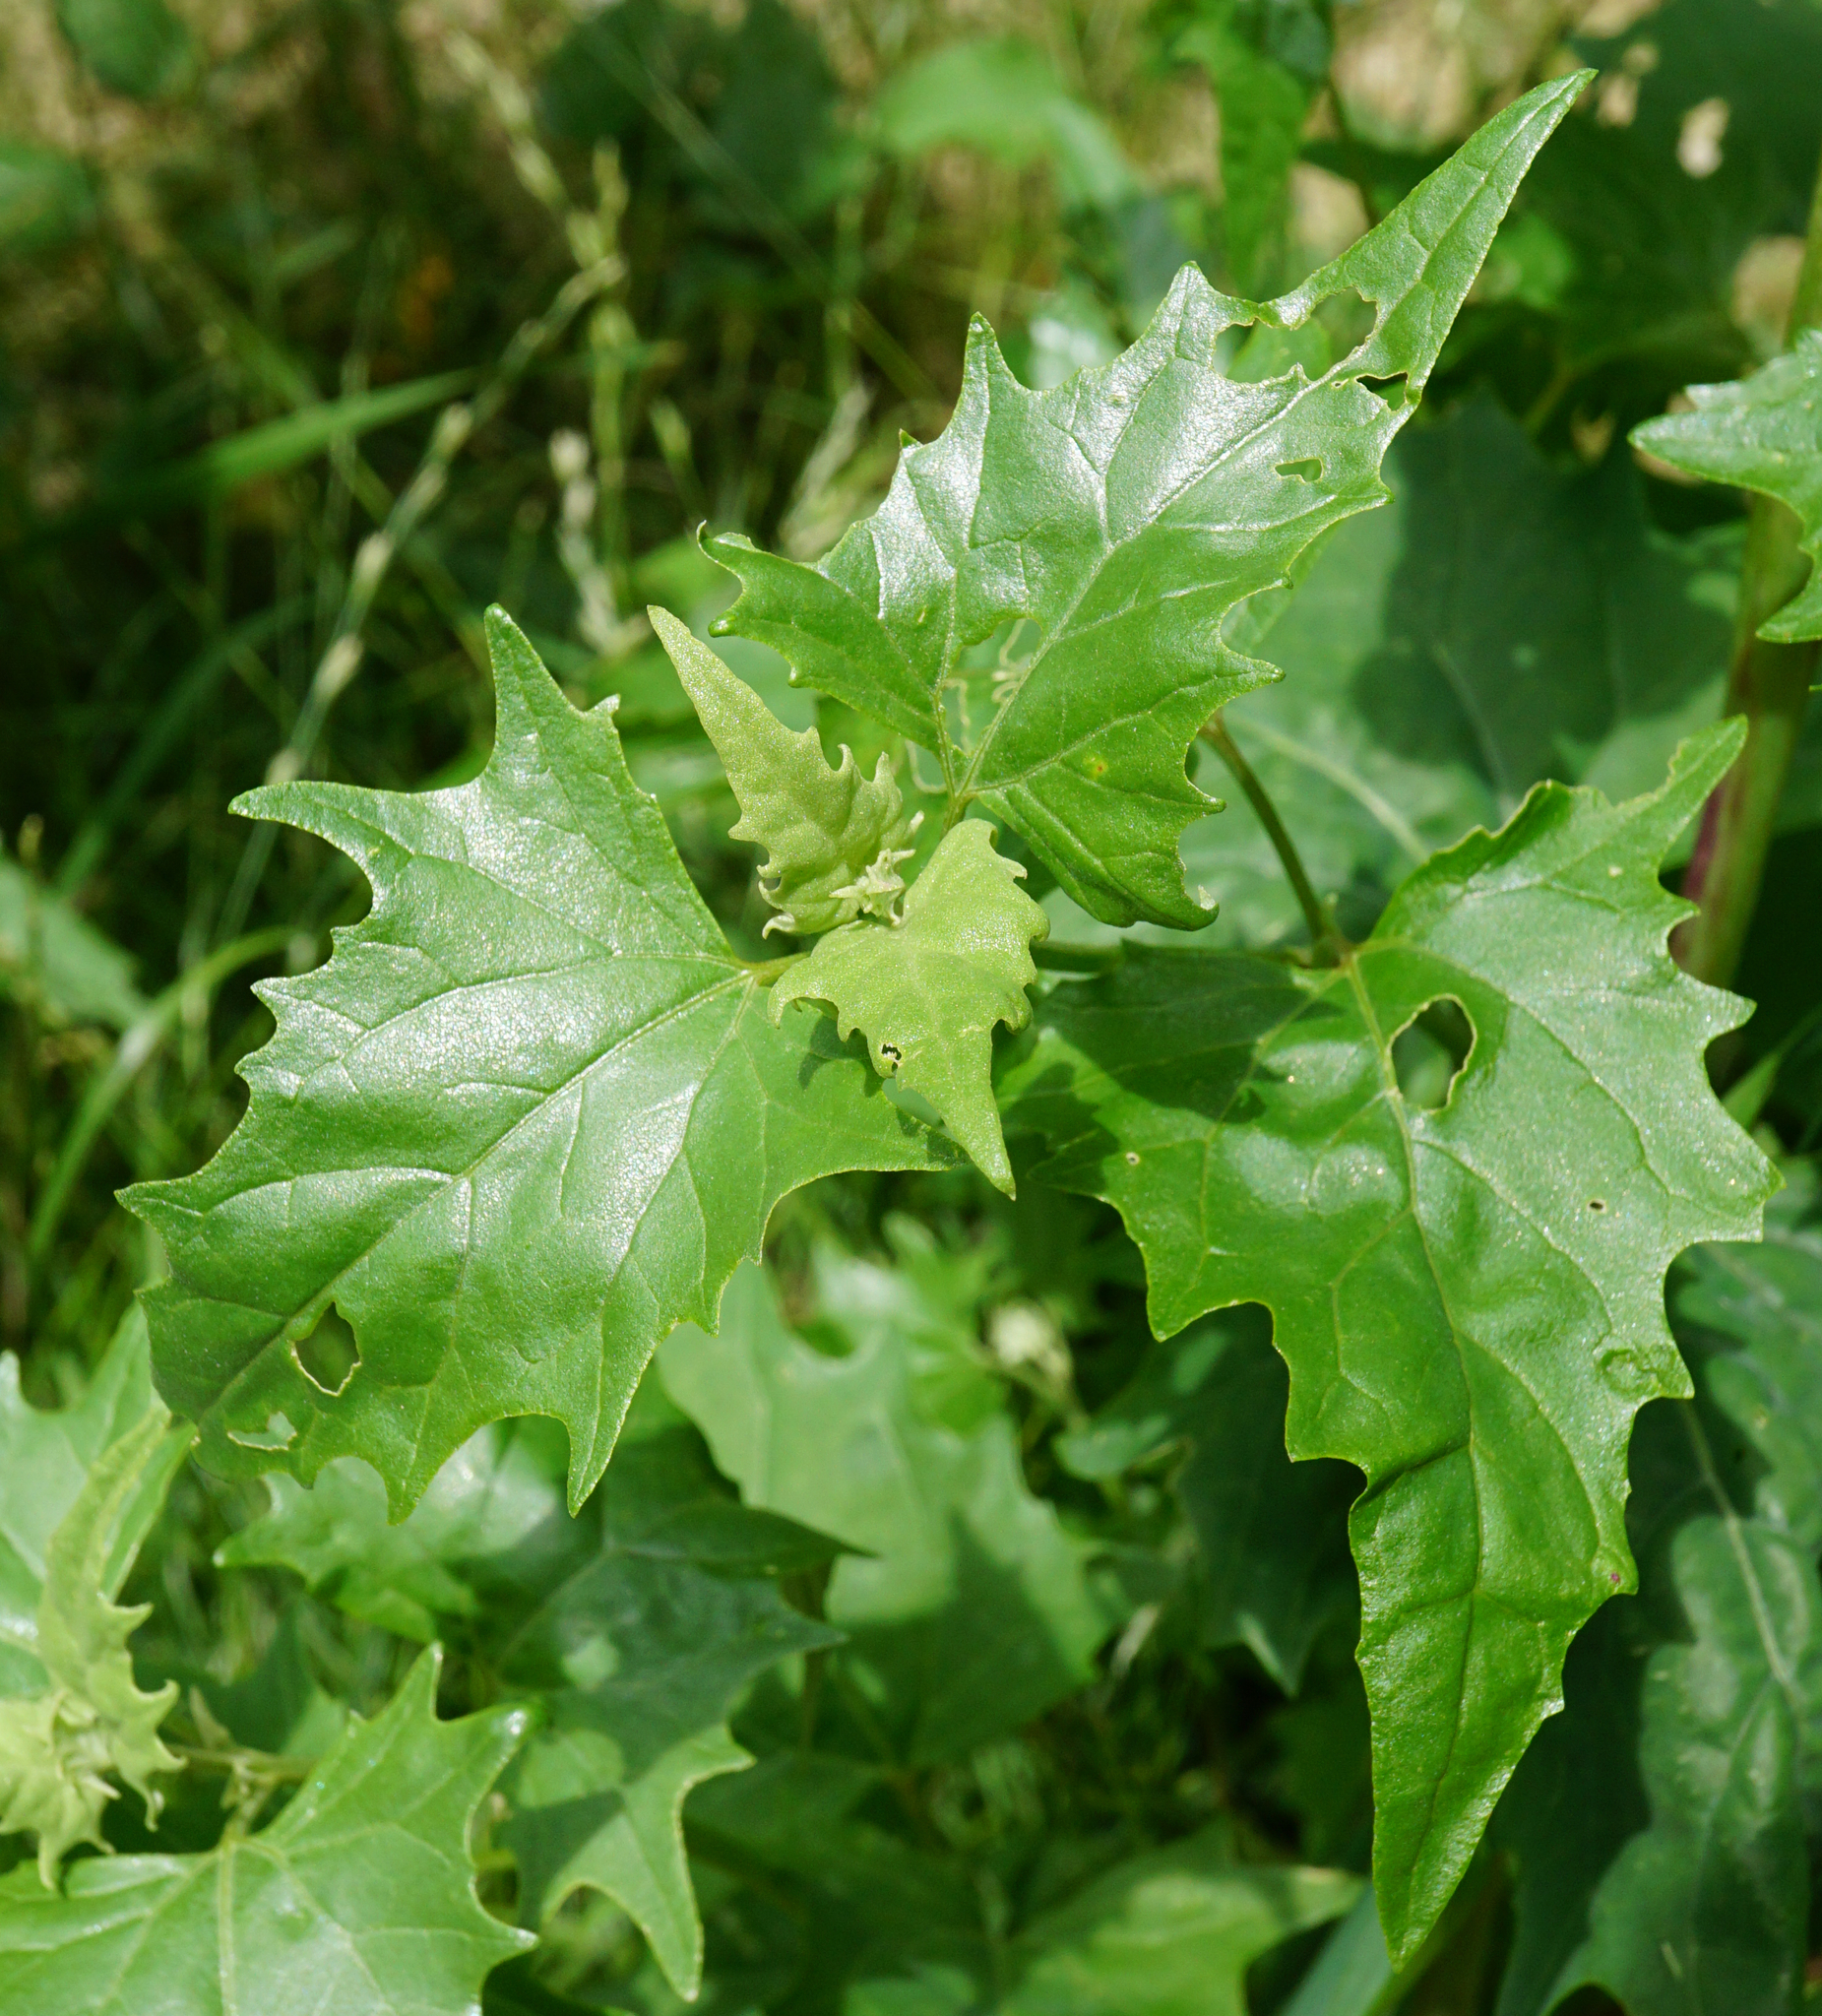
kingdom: Plantae
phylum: Tracheophyta
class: Magnoliopsida
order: Caryophyllales
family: Amaranthaceae
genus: Atriplex
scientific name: Atriplex sagittata
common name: Purple orache
